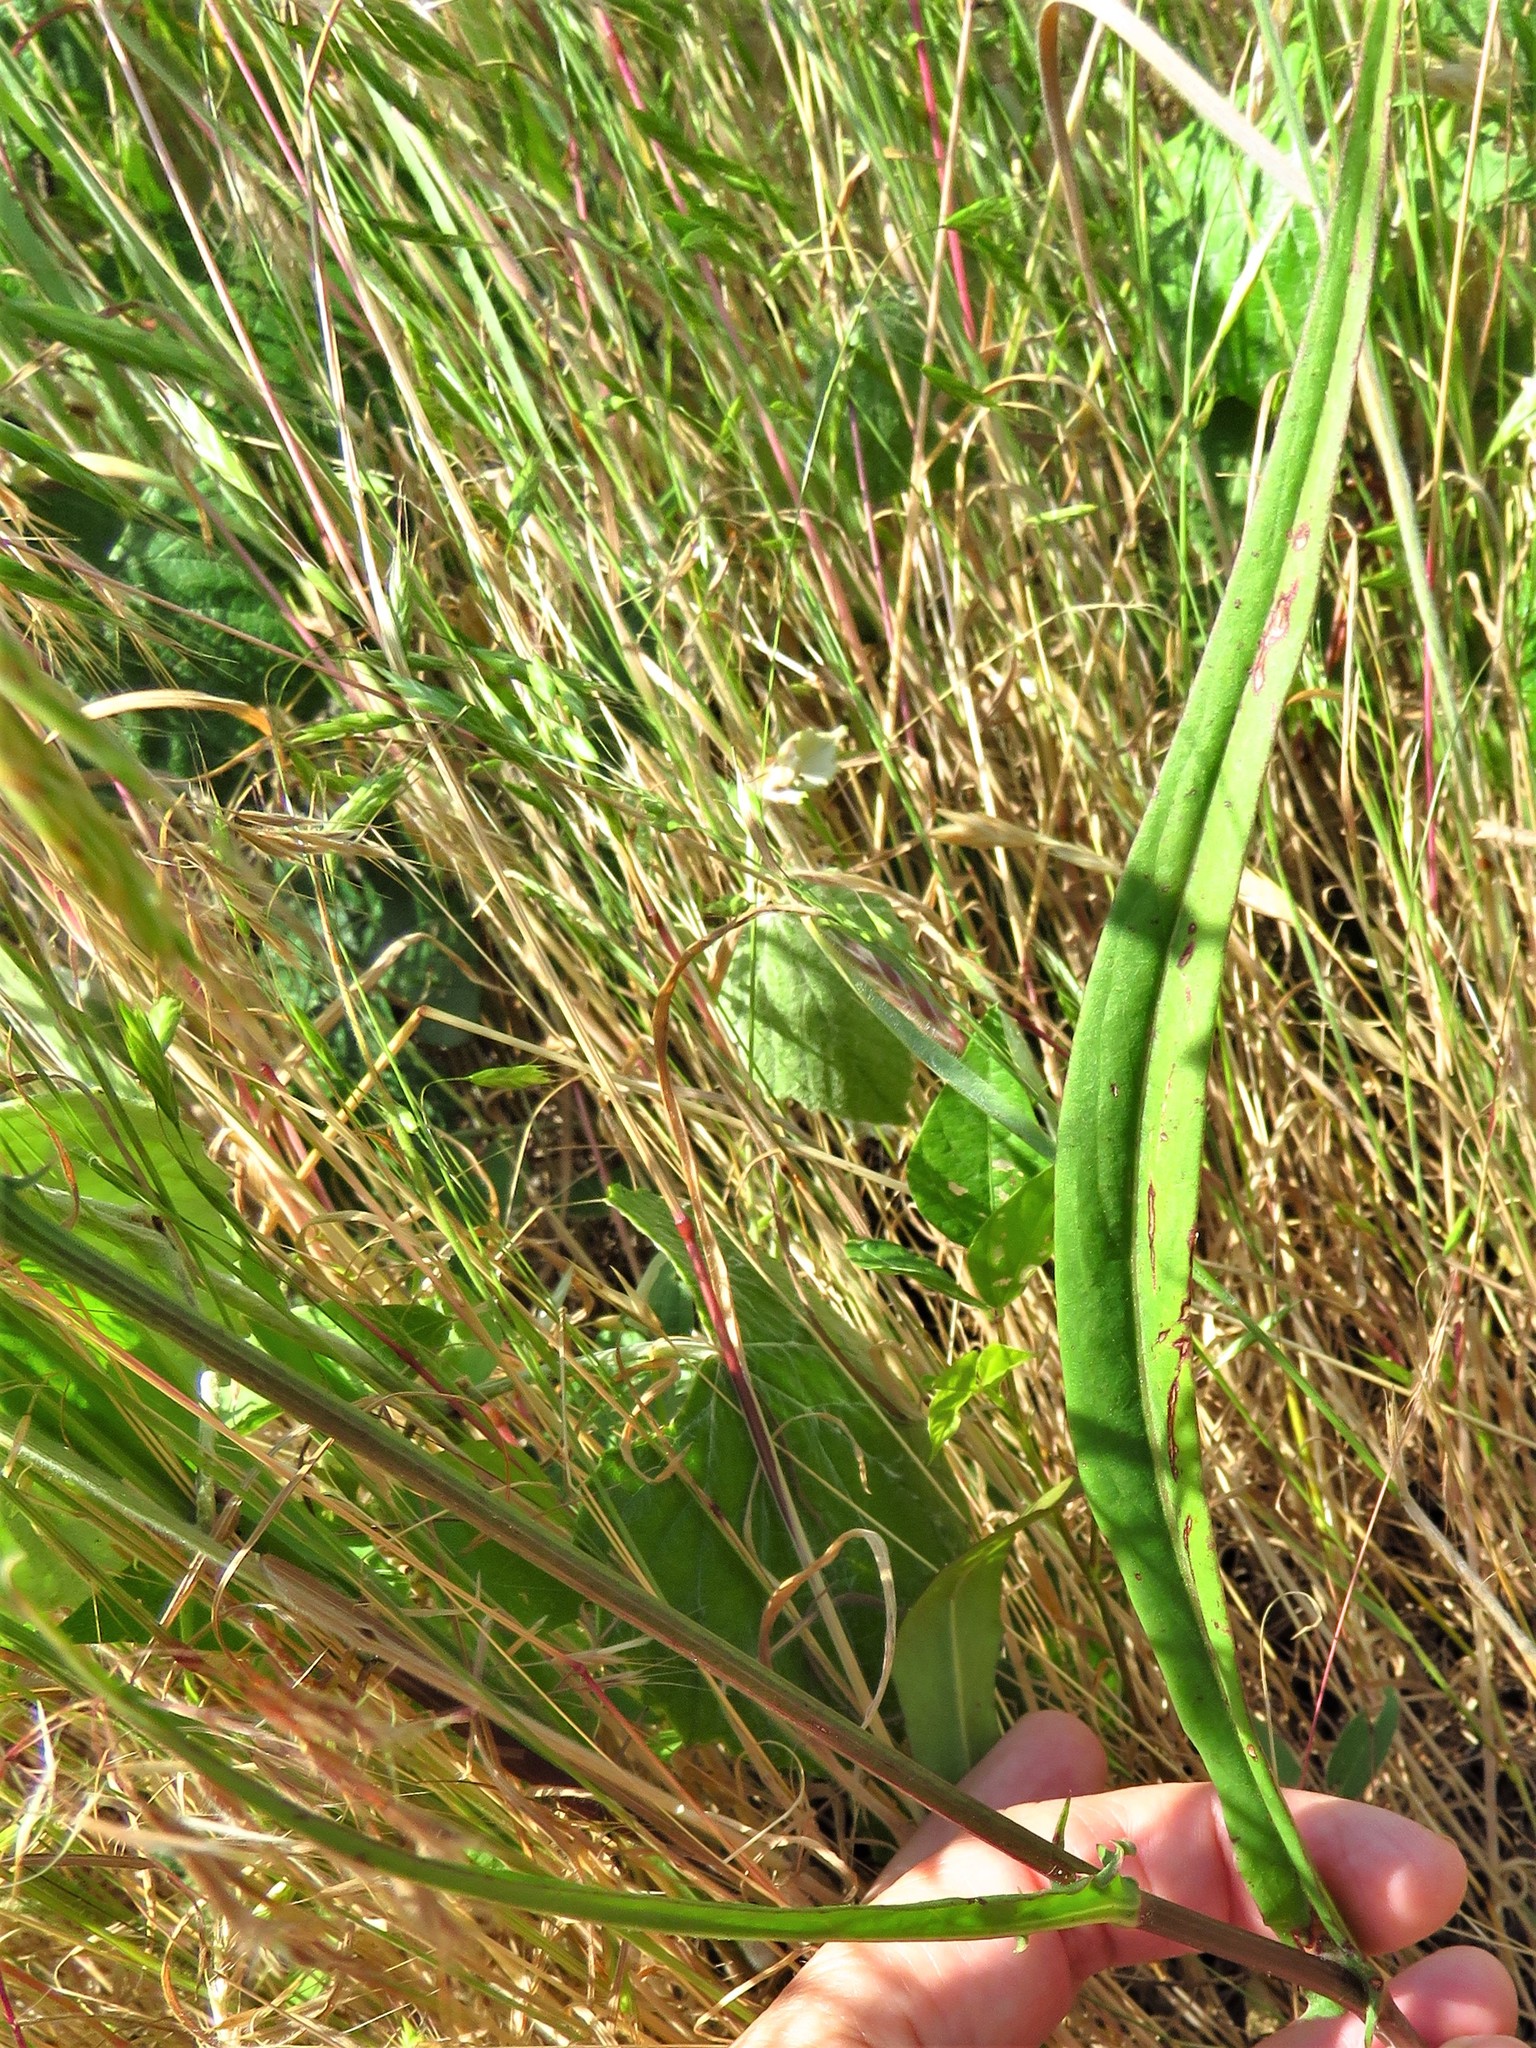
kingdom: Plantae
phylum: Tracheophyta
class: Magnoliopsida
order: Asterales
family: Asteraceae
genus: Pyrrhopappus
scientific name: Pyrrhopappus carolinianus
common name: Carolina desert-chicory
